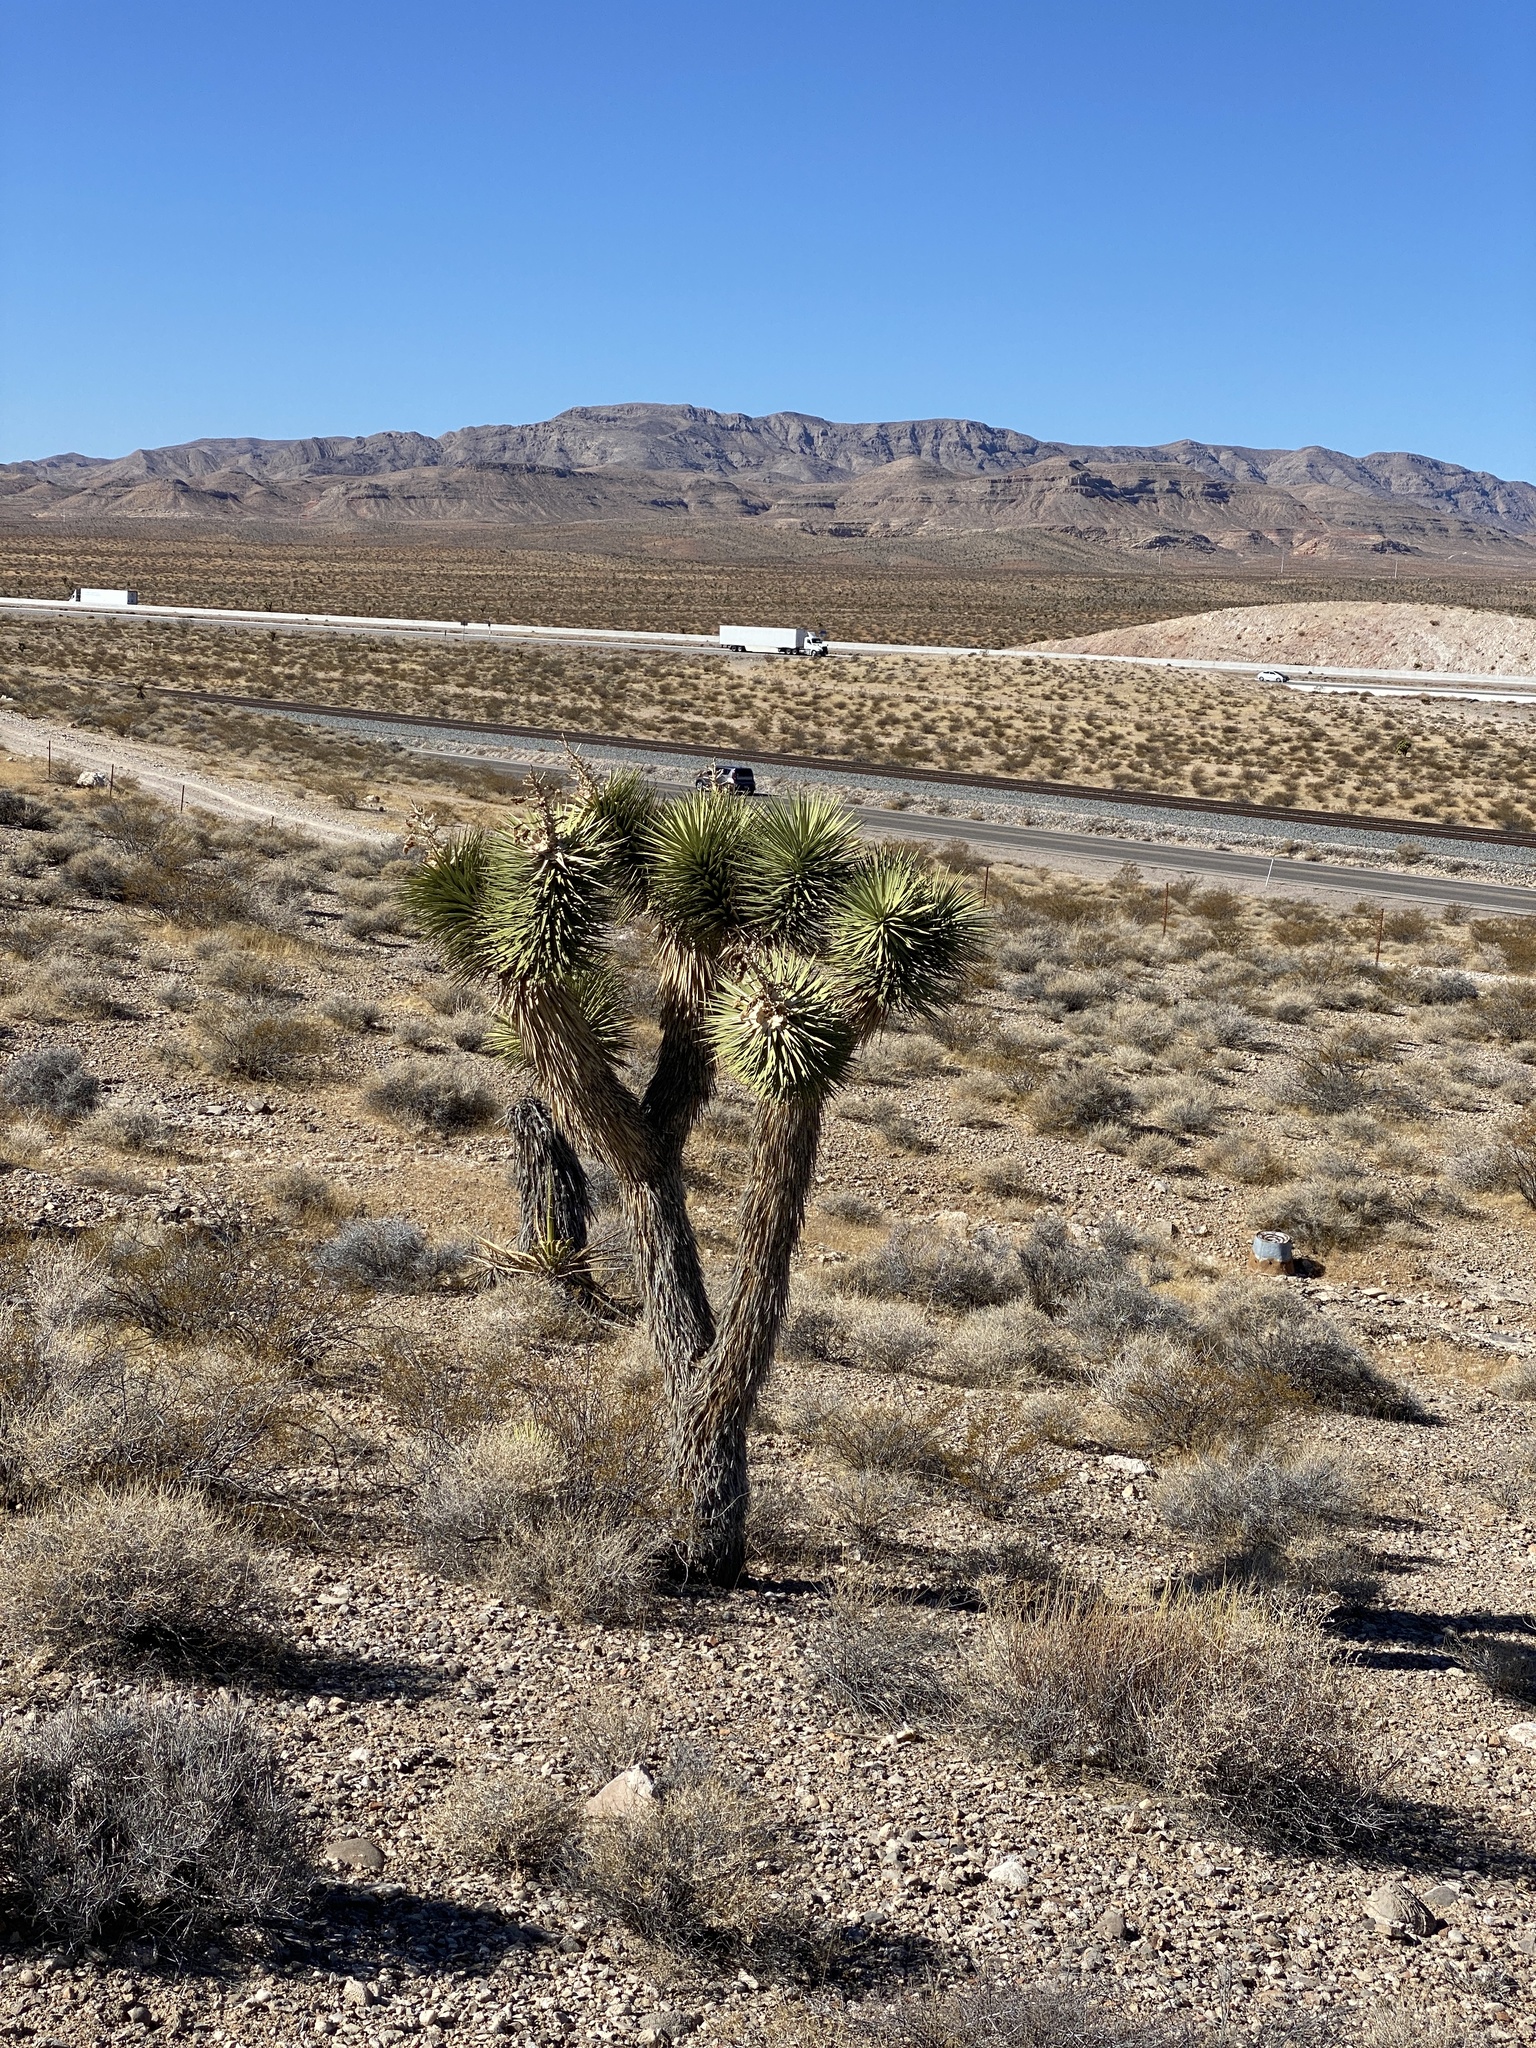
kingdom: Plantae
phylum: Tracheophyta
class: Liliopsida
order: Asparagales
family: Asparagaceae
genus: Yucca
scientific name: Yucca brevifolia
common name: Joshua tree
